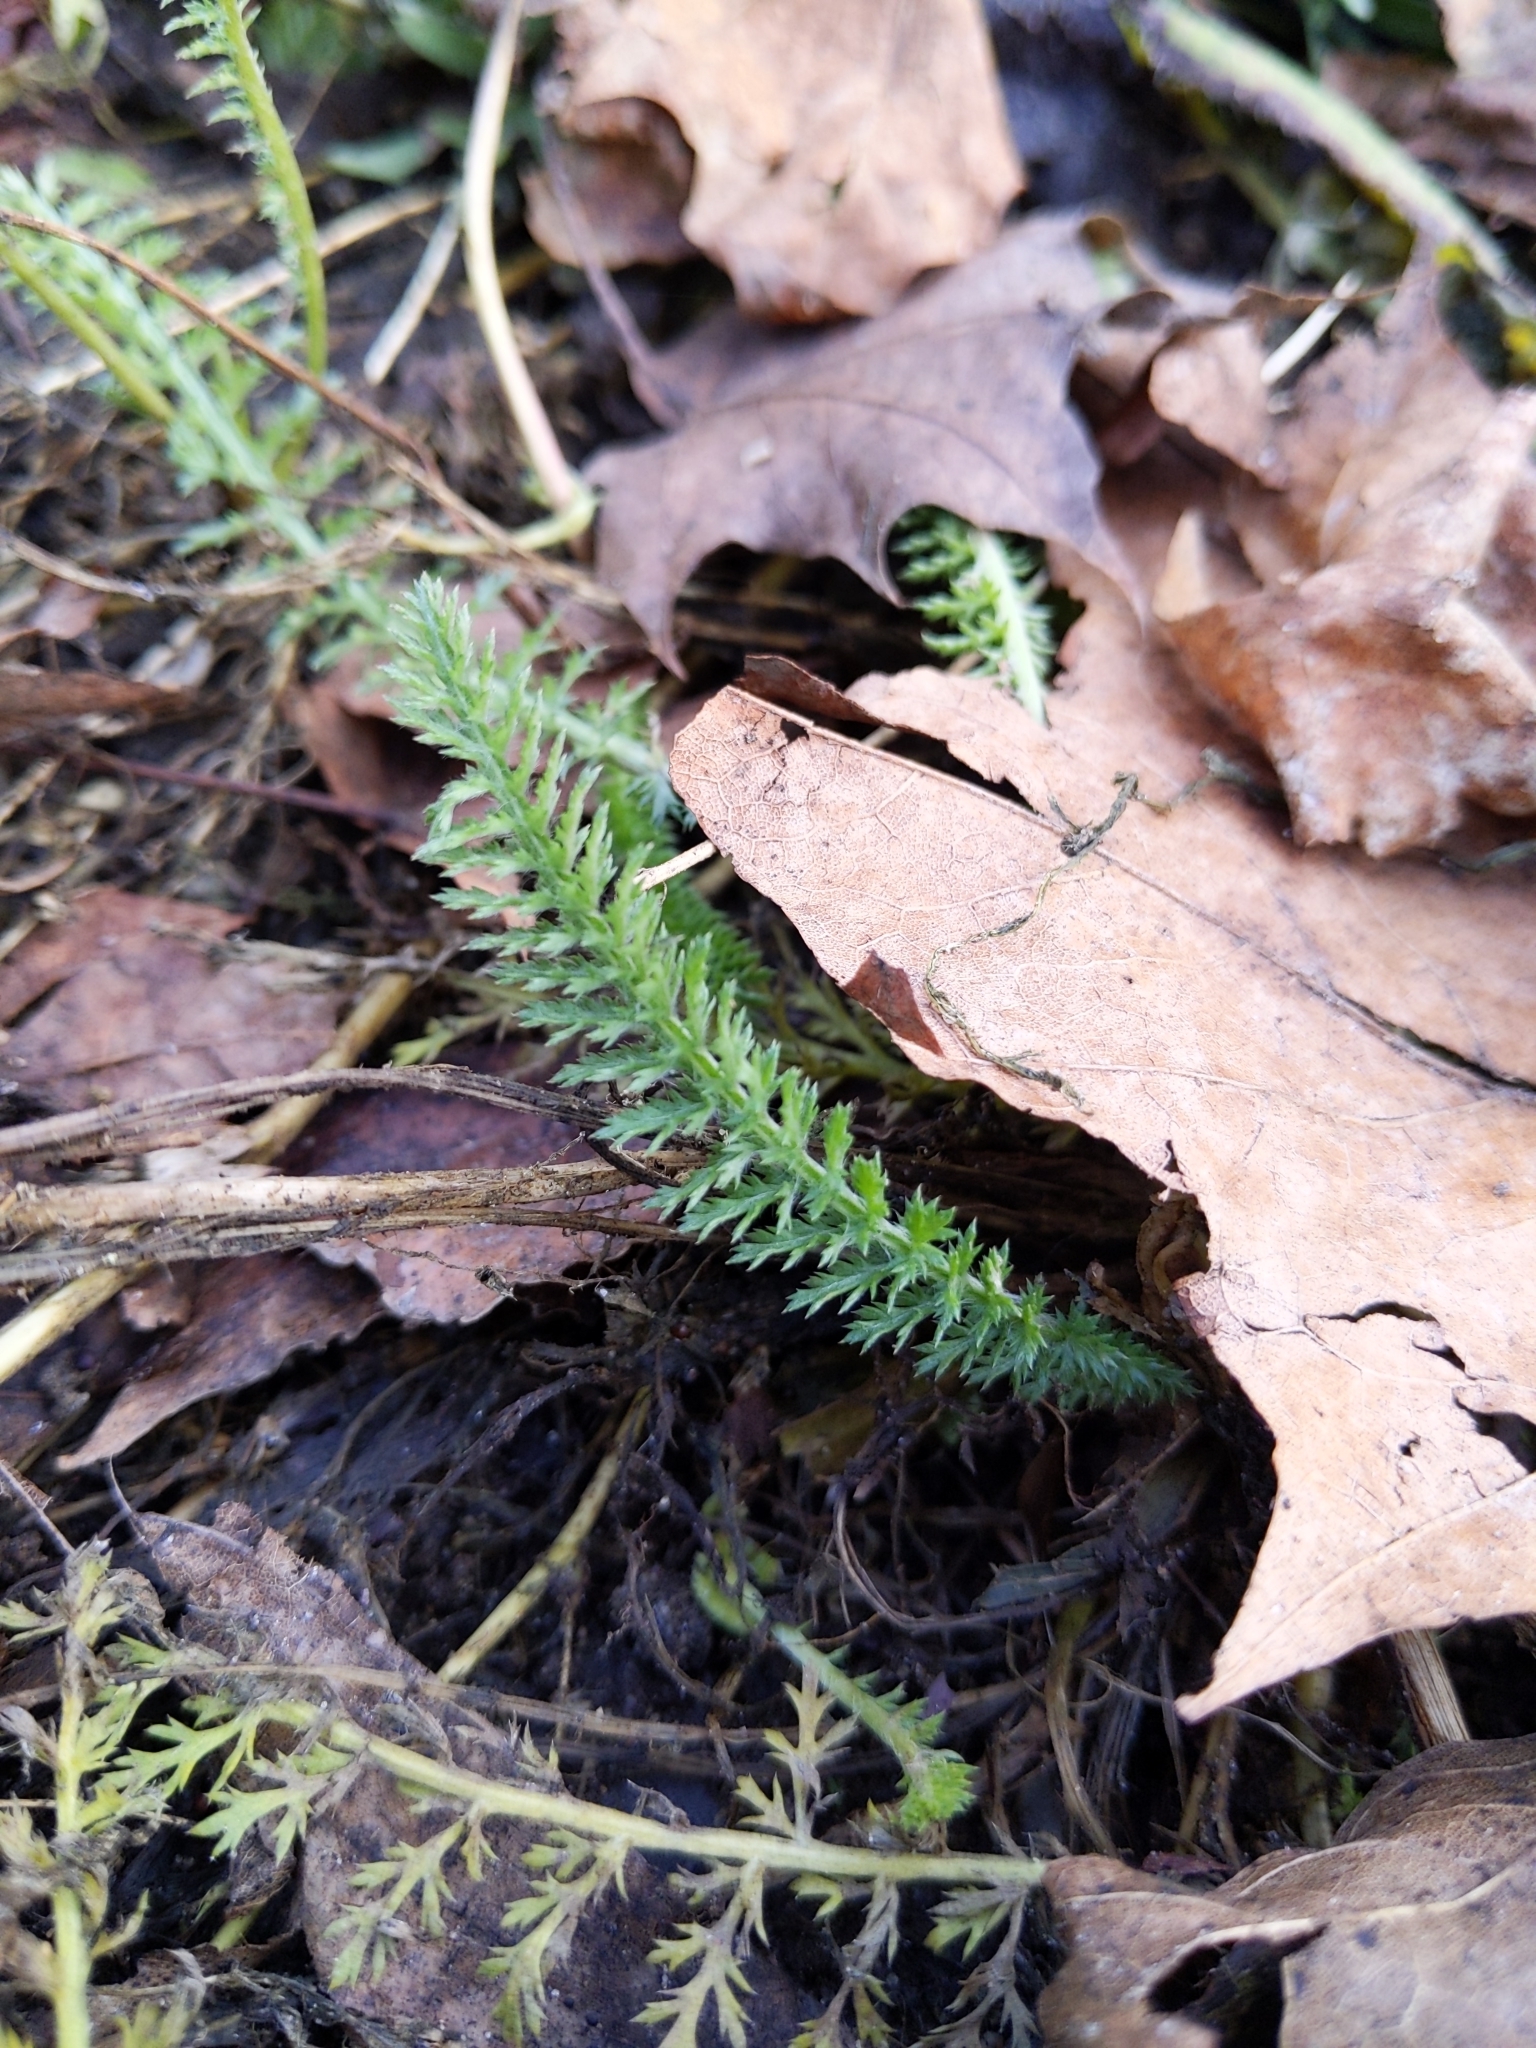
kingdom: Plantae
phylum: Tracheophyta
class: Magnoliopsida
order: Asterales
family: Asteraceae
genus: Achillea
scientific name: Achillea millefolium
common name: Yarrow
